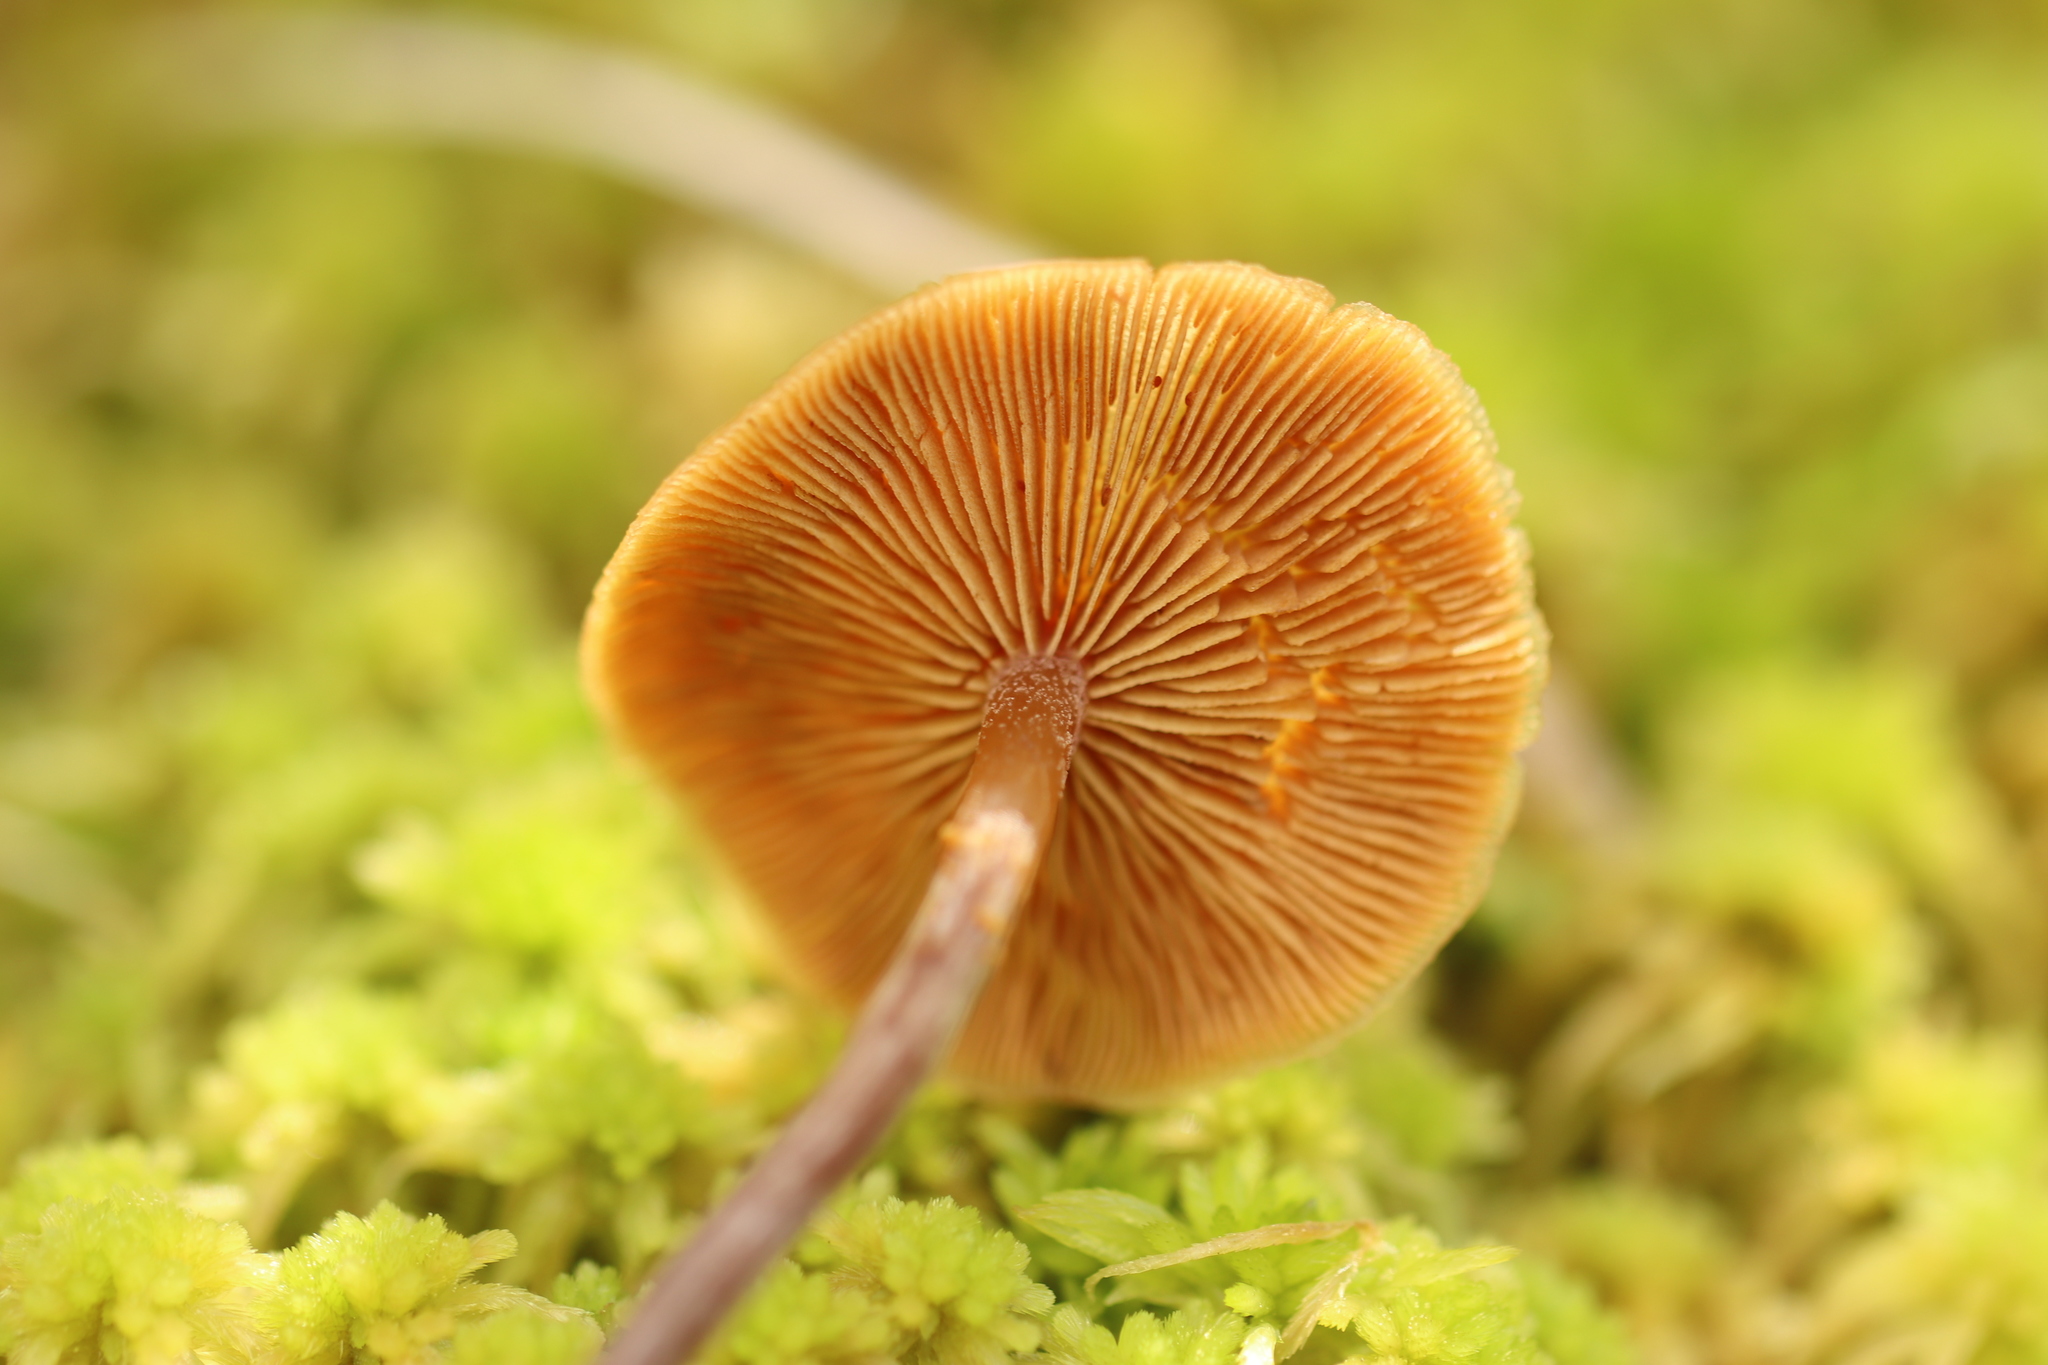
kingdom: Fungi
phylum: Basidiomycota
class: Agaricomycetes
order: Agaricales
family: Strophariaceae
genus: Pholiota
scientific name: Pholiota lignicola
